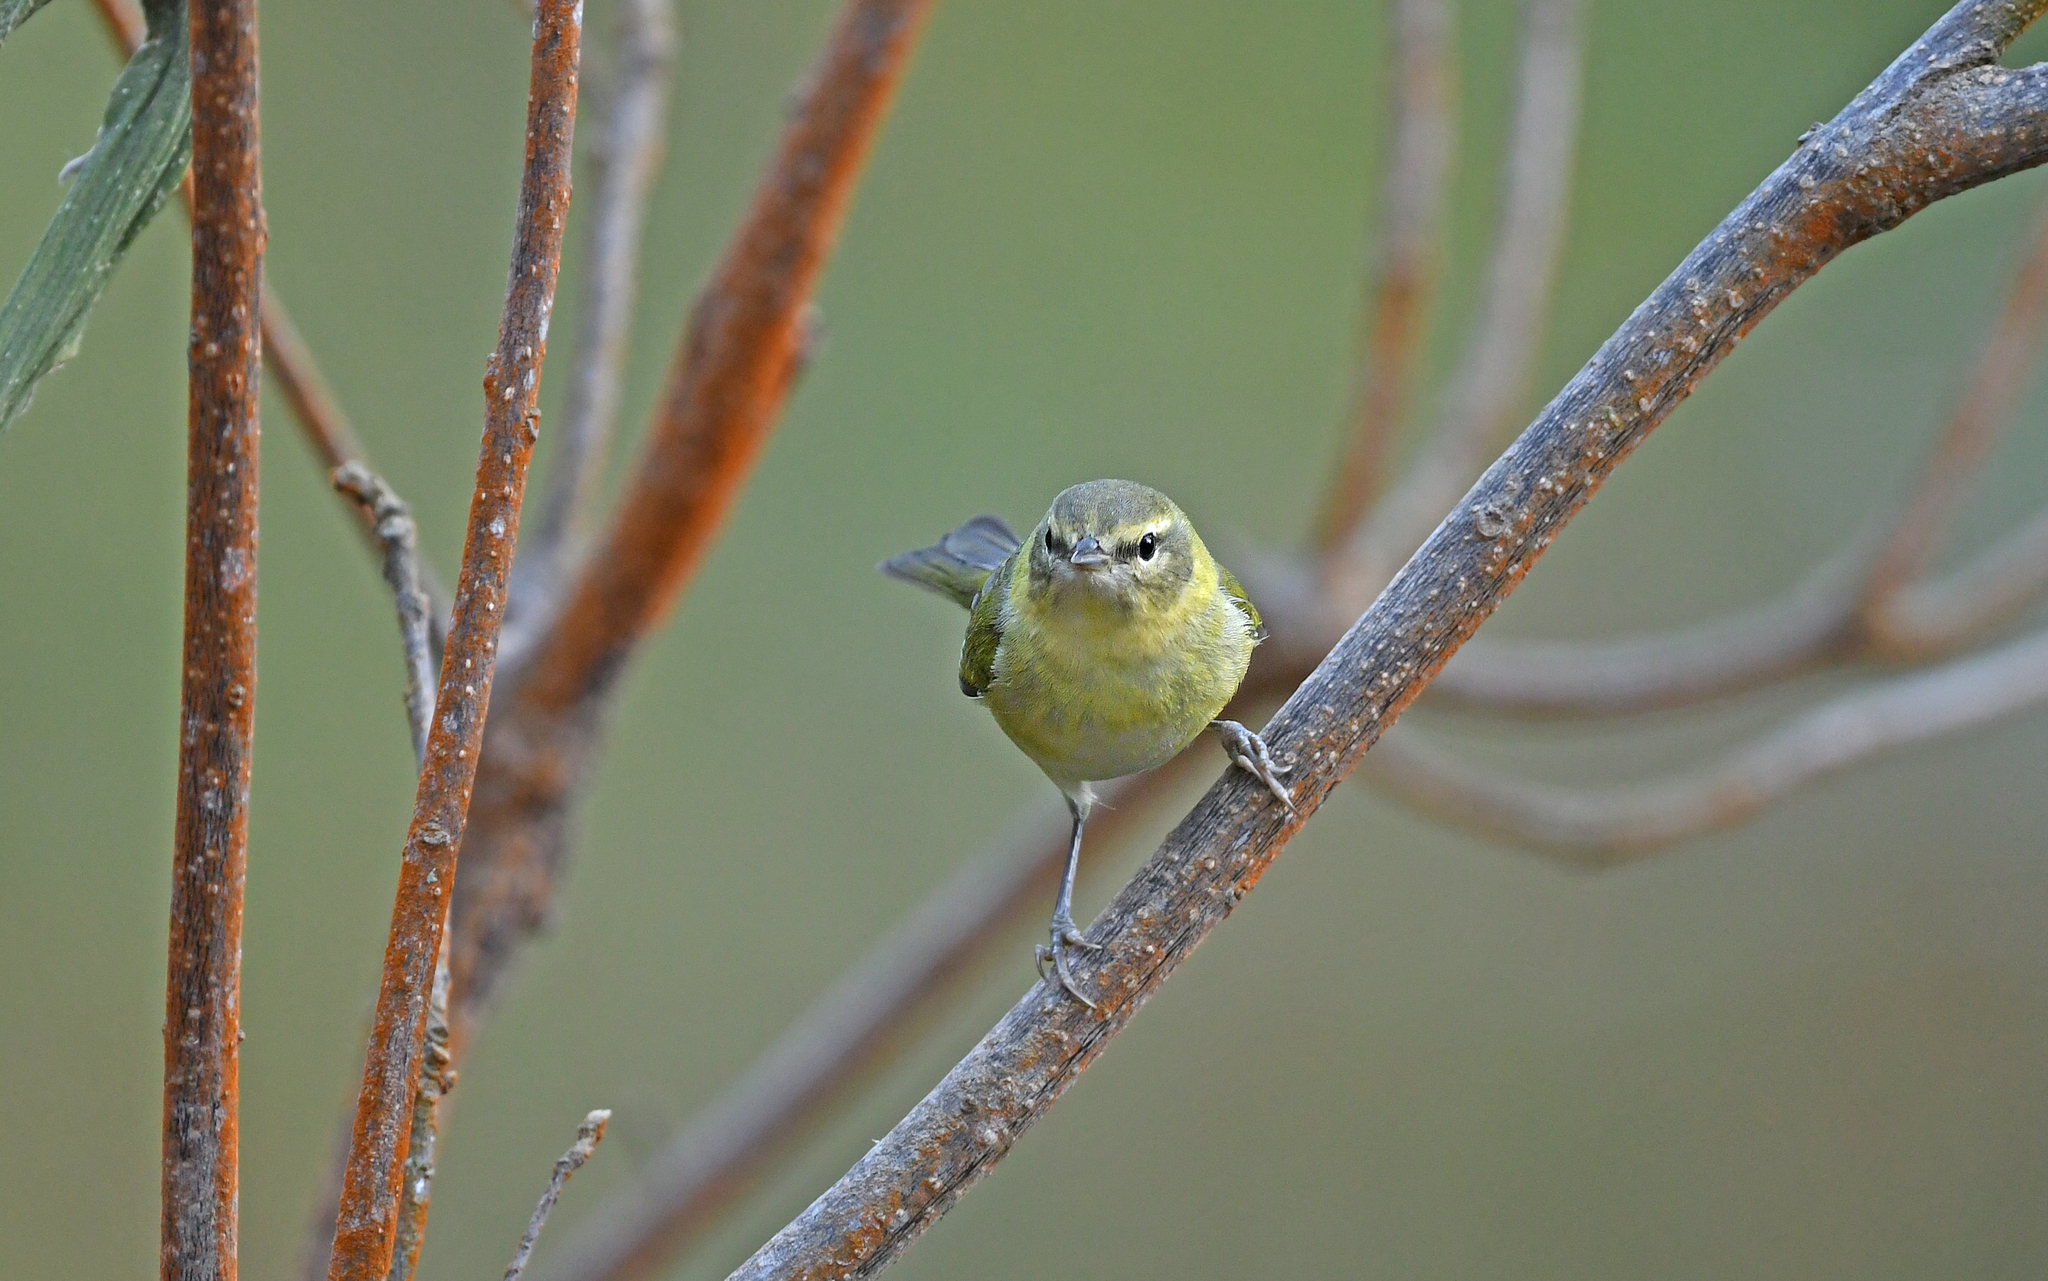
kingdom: Animalia
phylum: Chordata
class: Aves
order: Passeriformes
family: Parulidae
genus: Leiothlypis
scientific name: Leiothlypis peregrina
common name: Tennessee warbler
